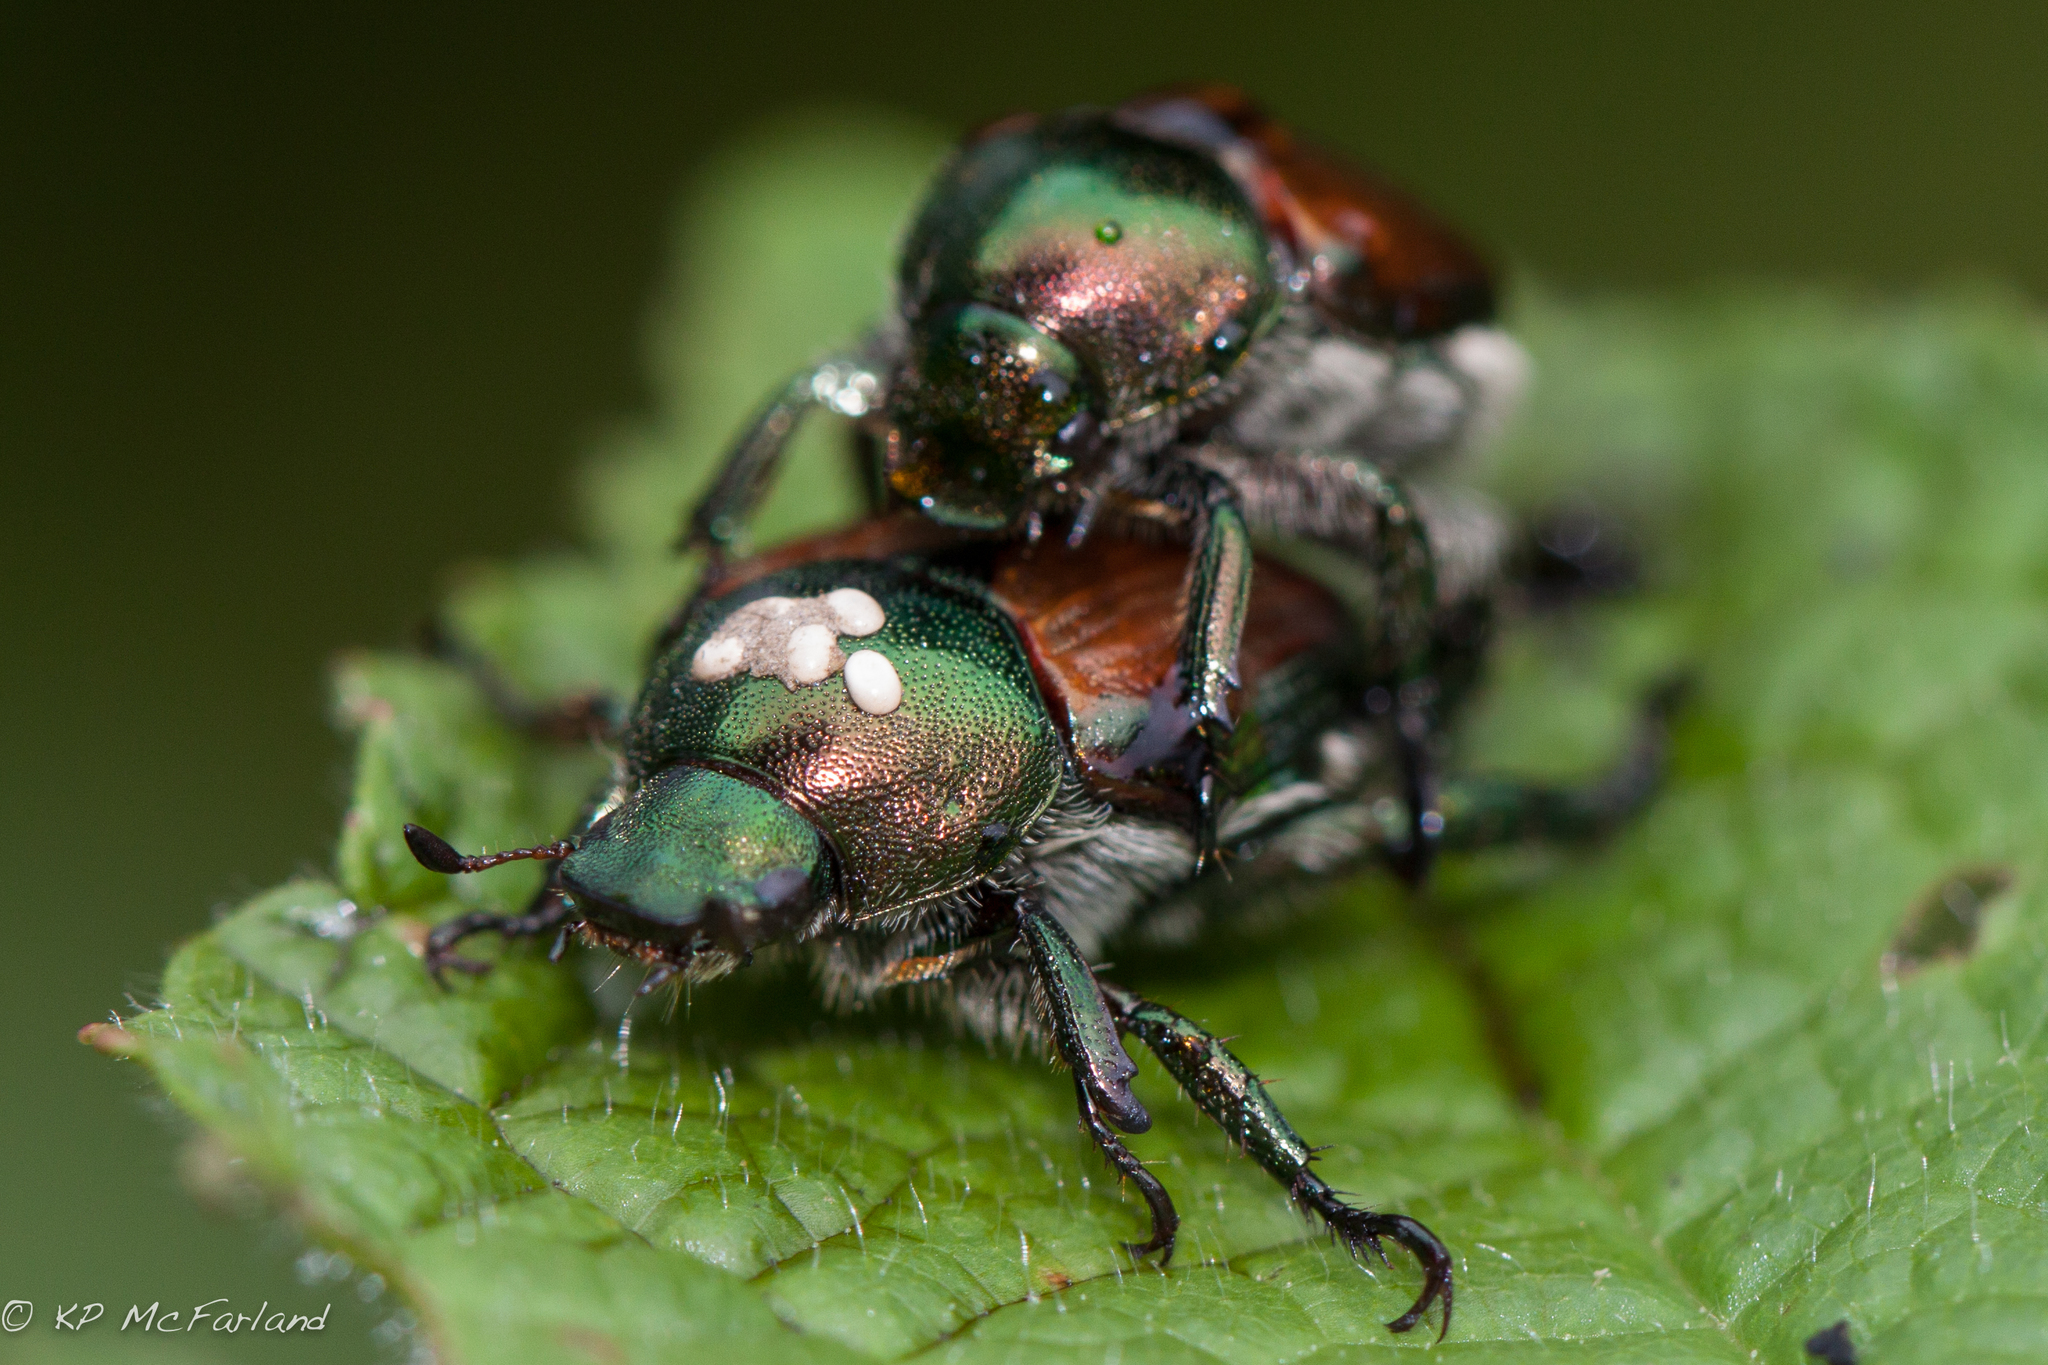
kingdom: Animalia
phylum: Arthropoda
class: Insecta
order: Coleoptera
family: Scarabaeidae
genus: Popillia
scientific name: Popillia japonica
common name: Japanese beetle
